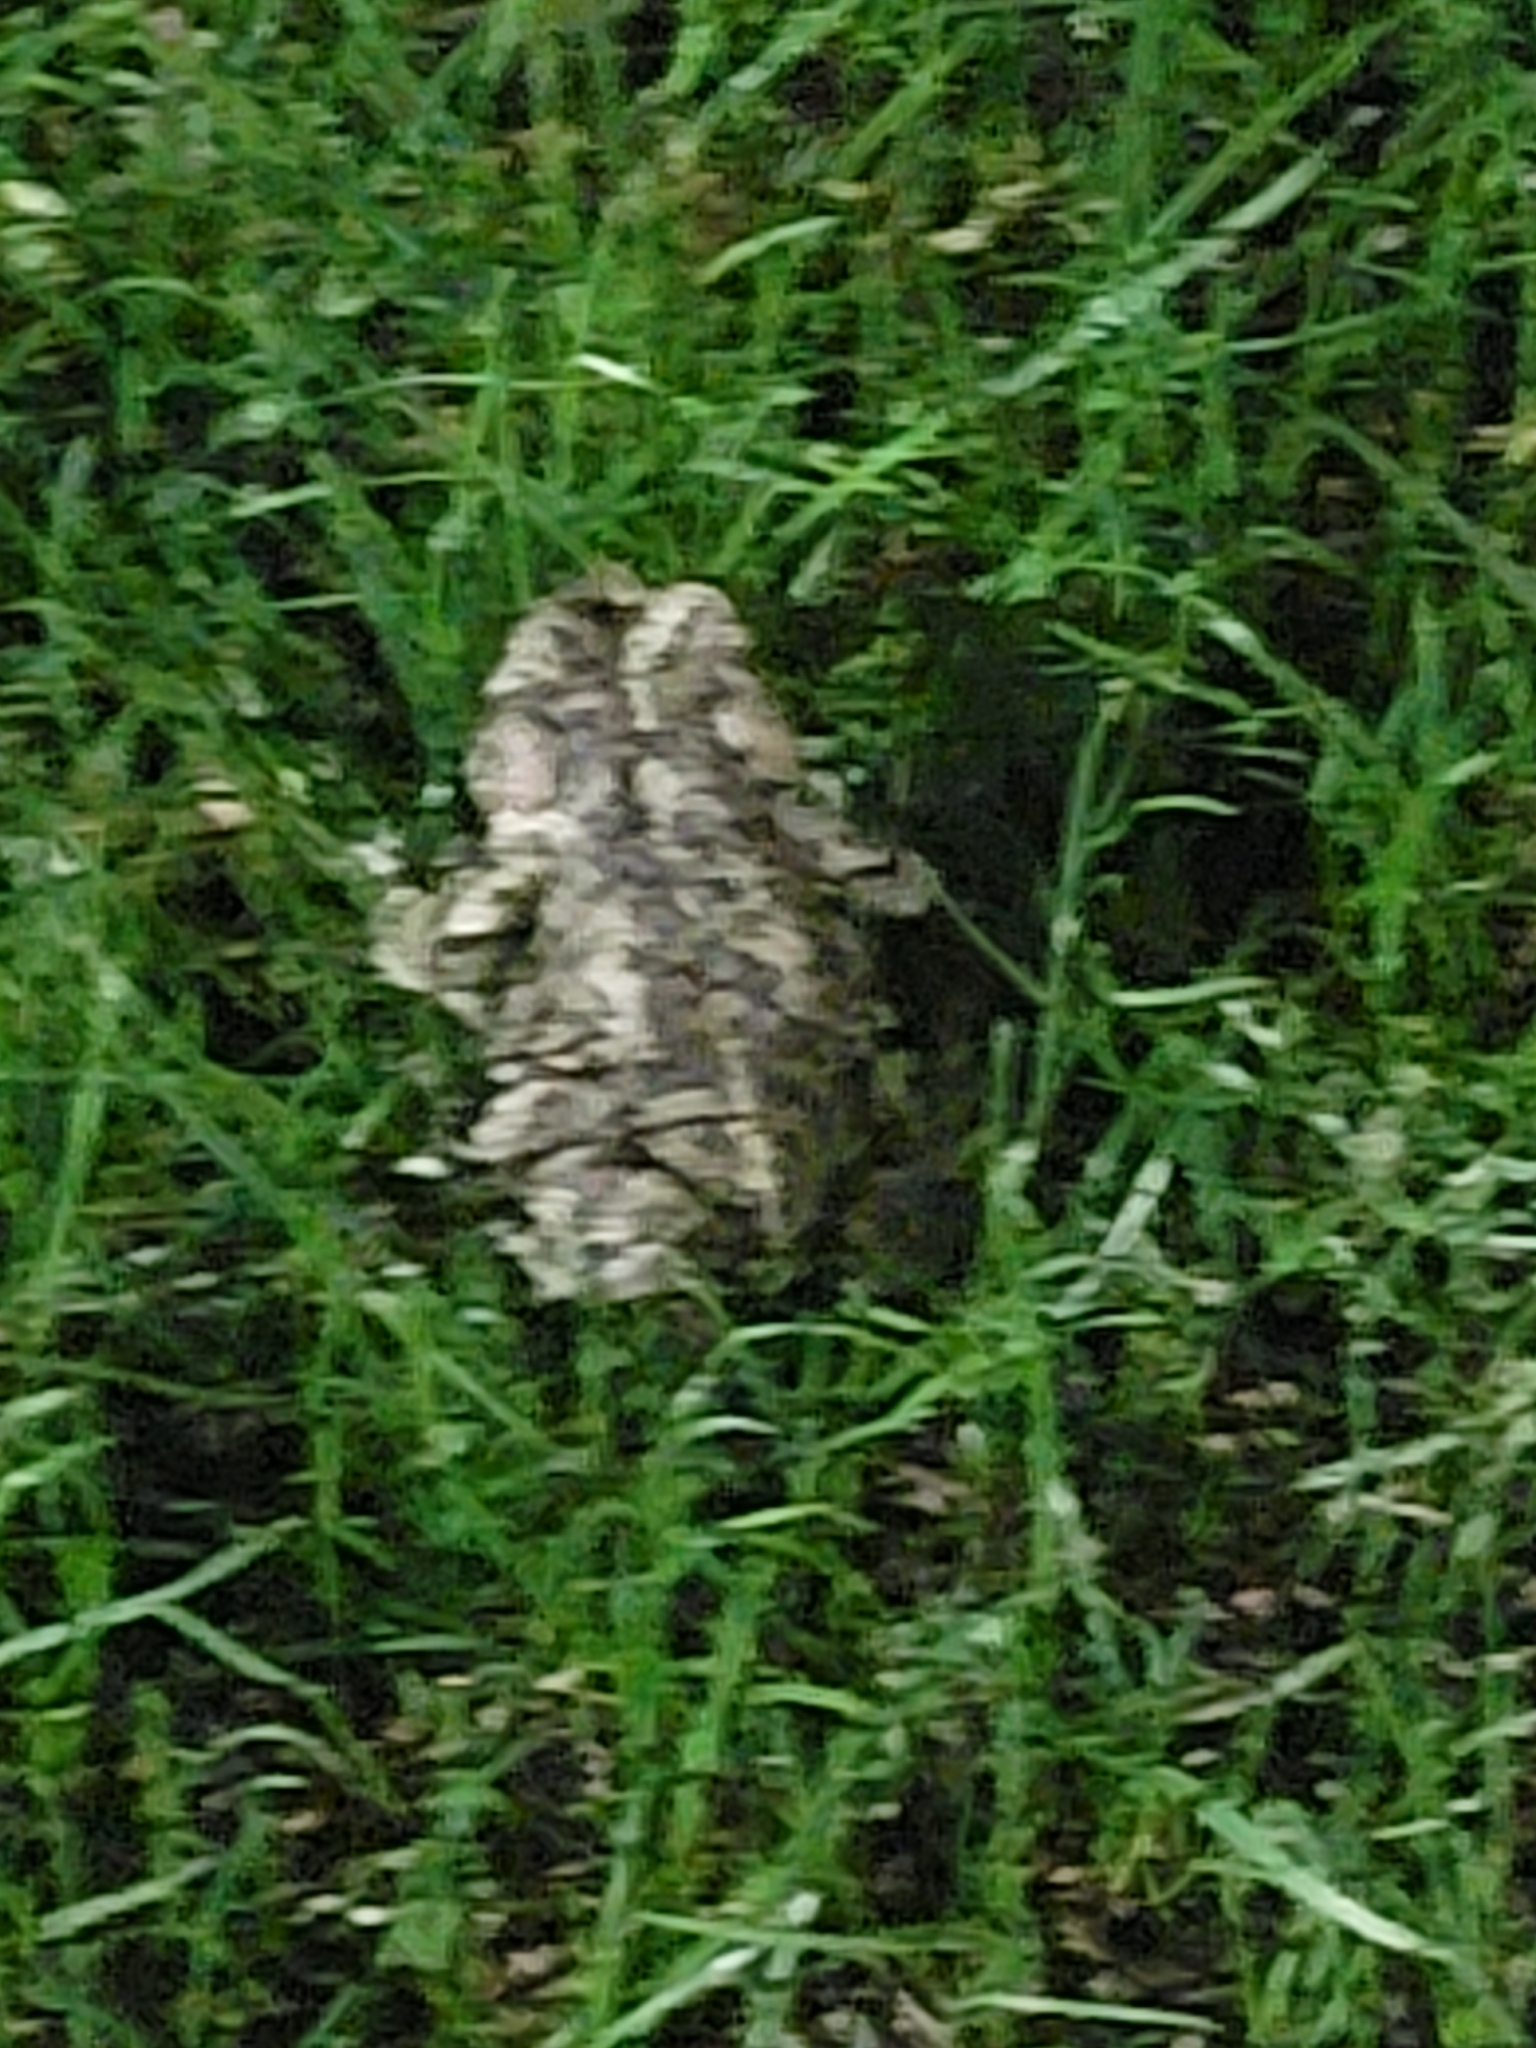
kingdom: Animalia
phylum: Chordata
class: Amphibia
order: Anura
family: Bufonidae
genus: Anaxyrus
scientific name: Anaxyrus boreas
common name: Western toad
